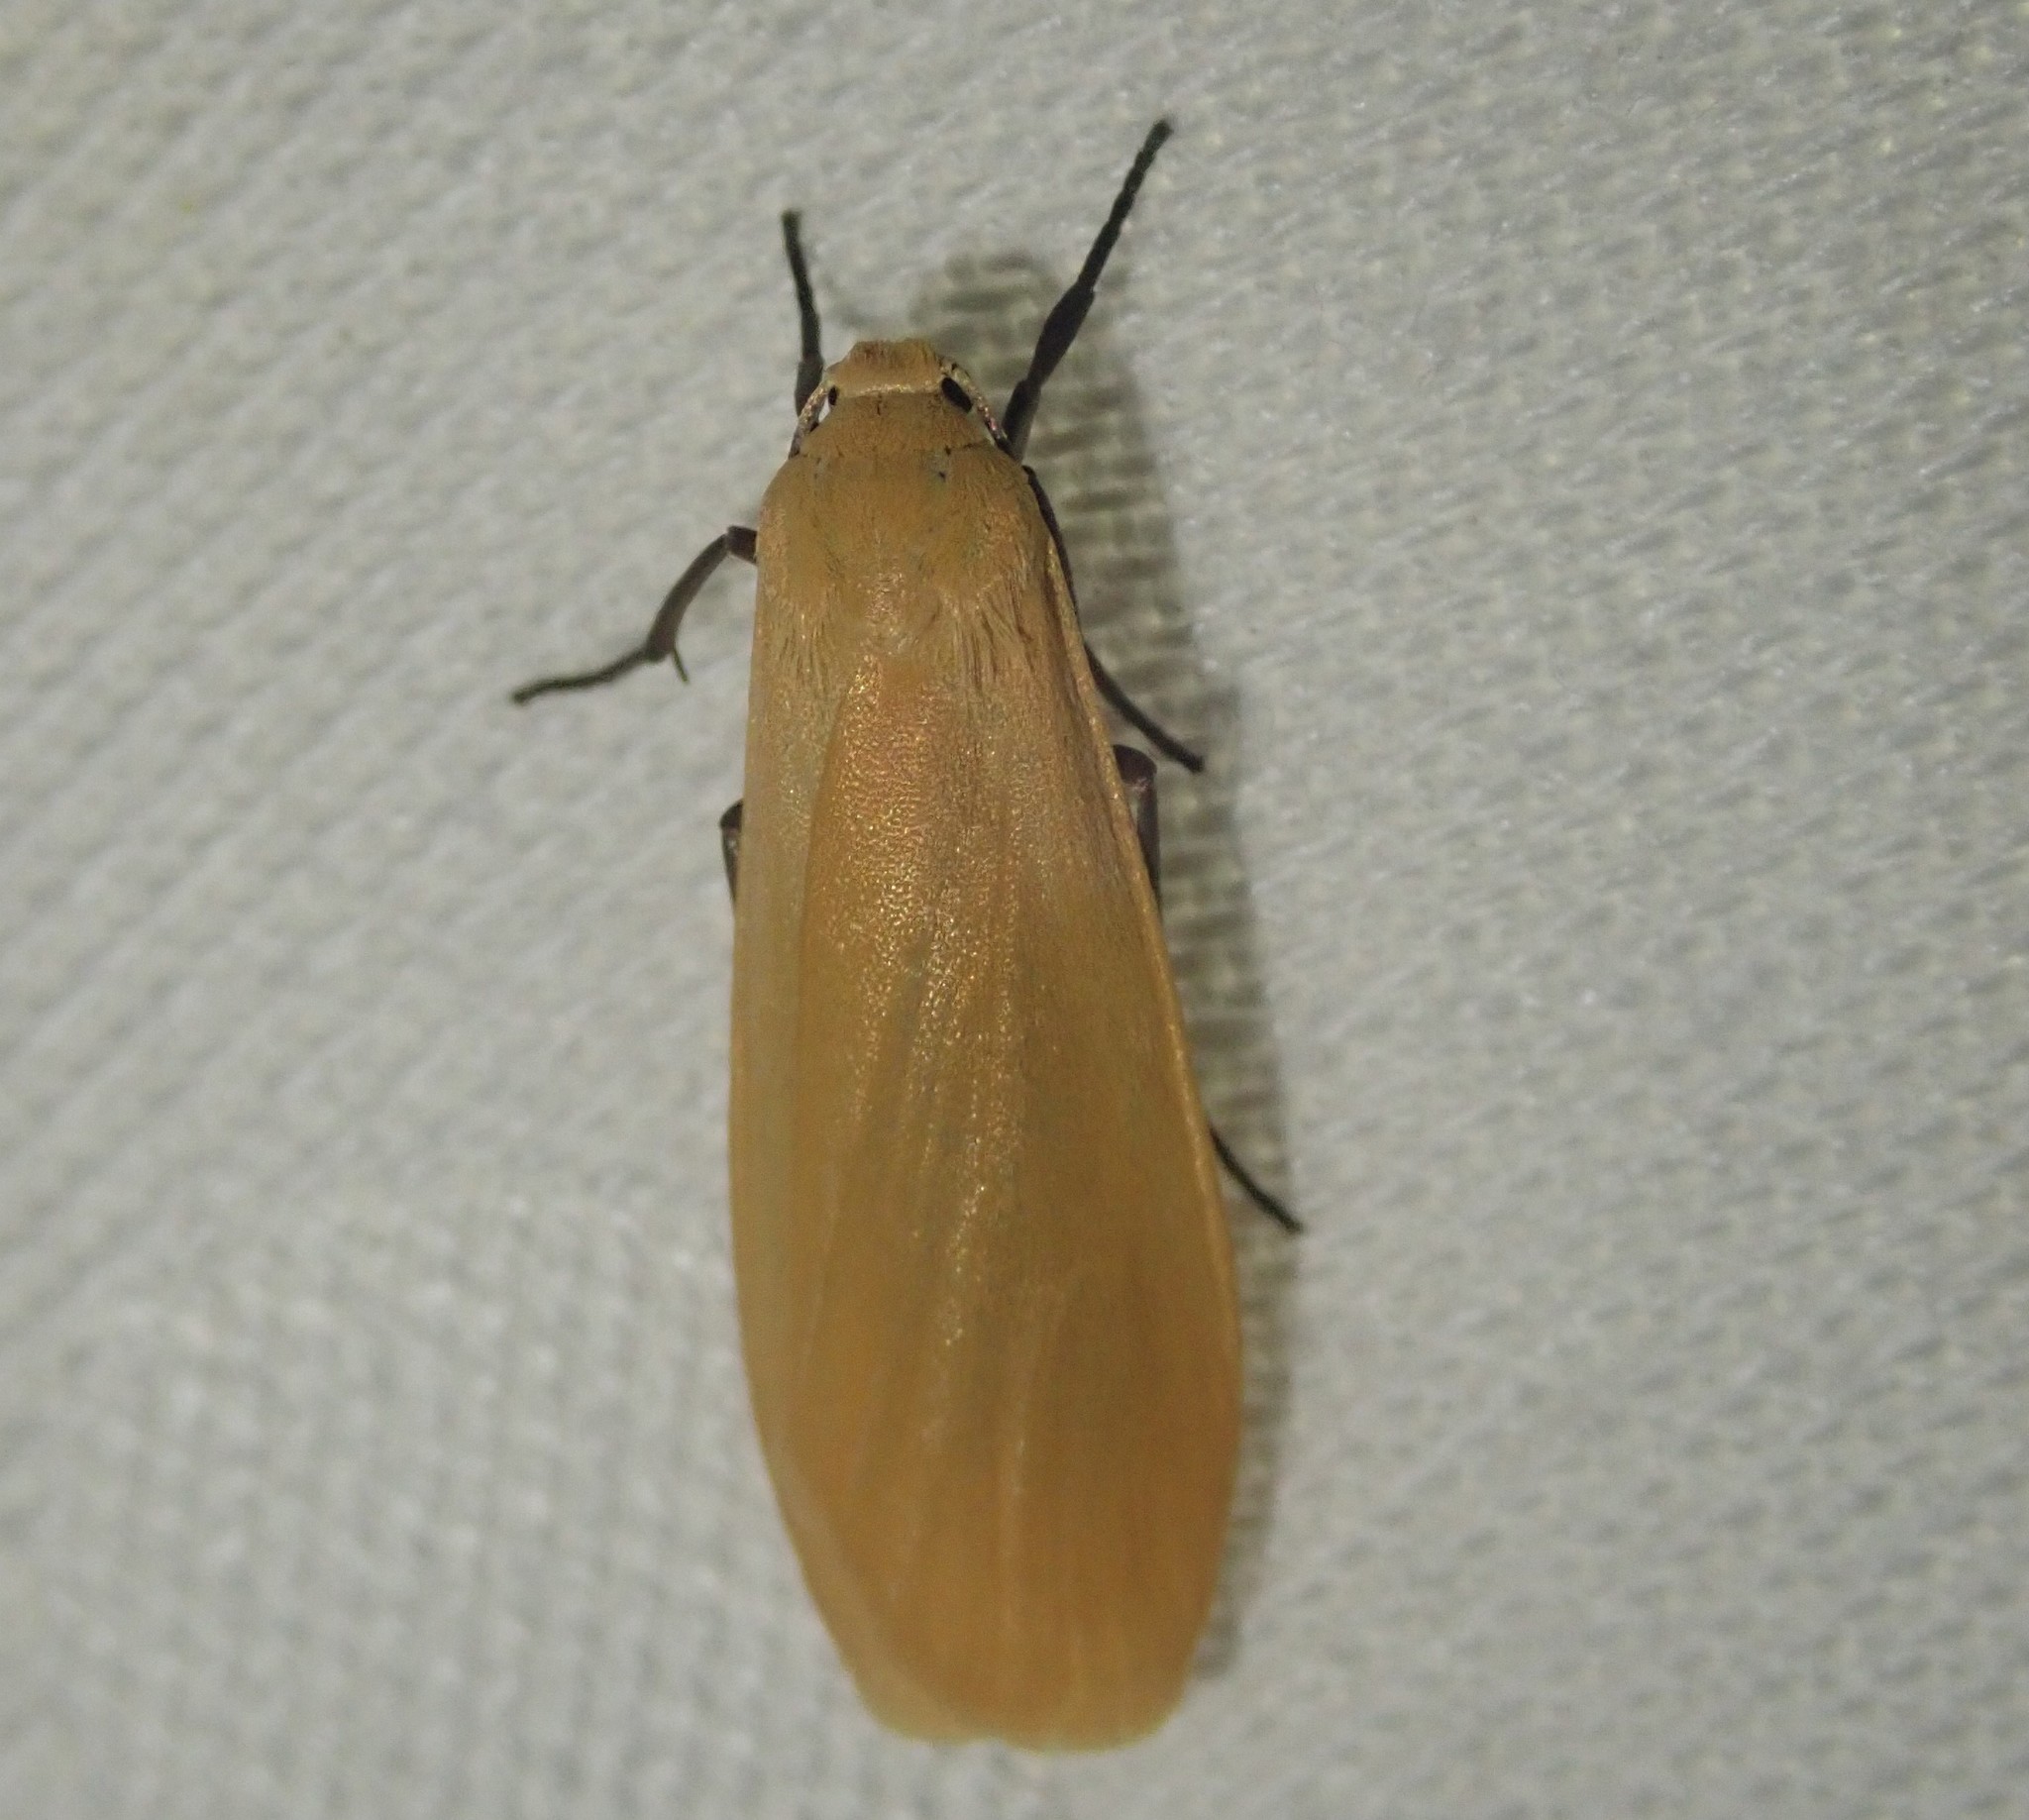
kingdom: Animalia
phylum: Arthropoda
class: Insecta
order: Lepidoptera
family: Erebidae
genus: Wittia
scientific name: Wittia sororcula
